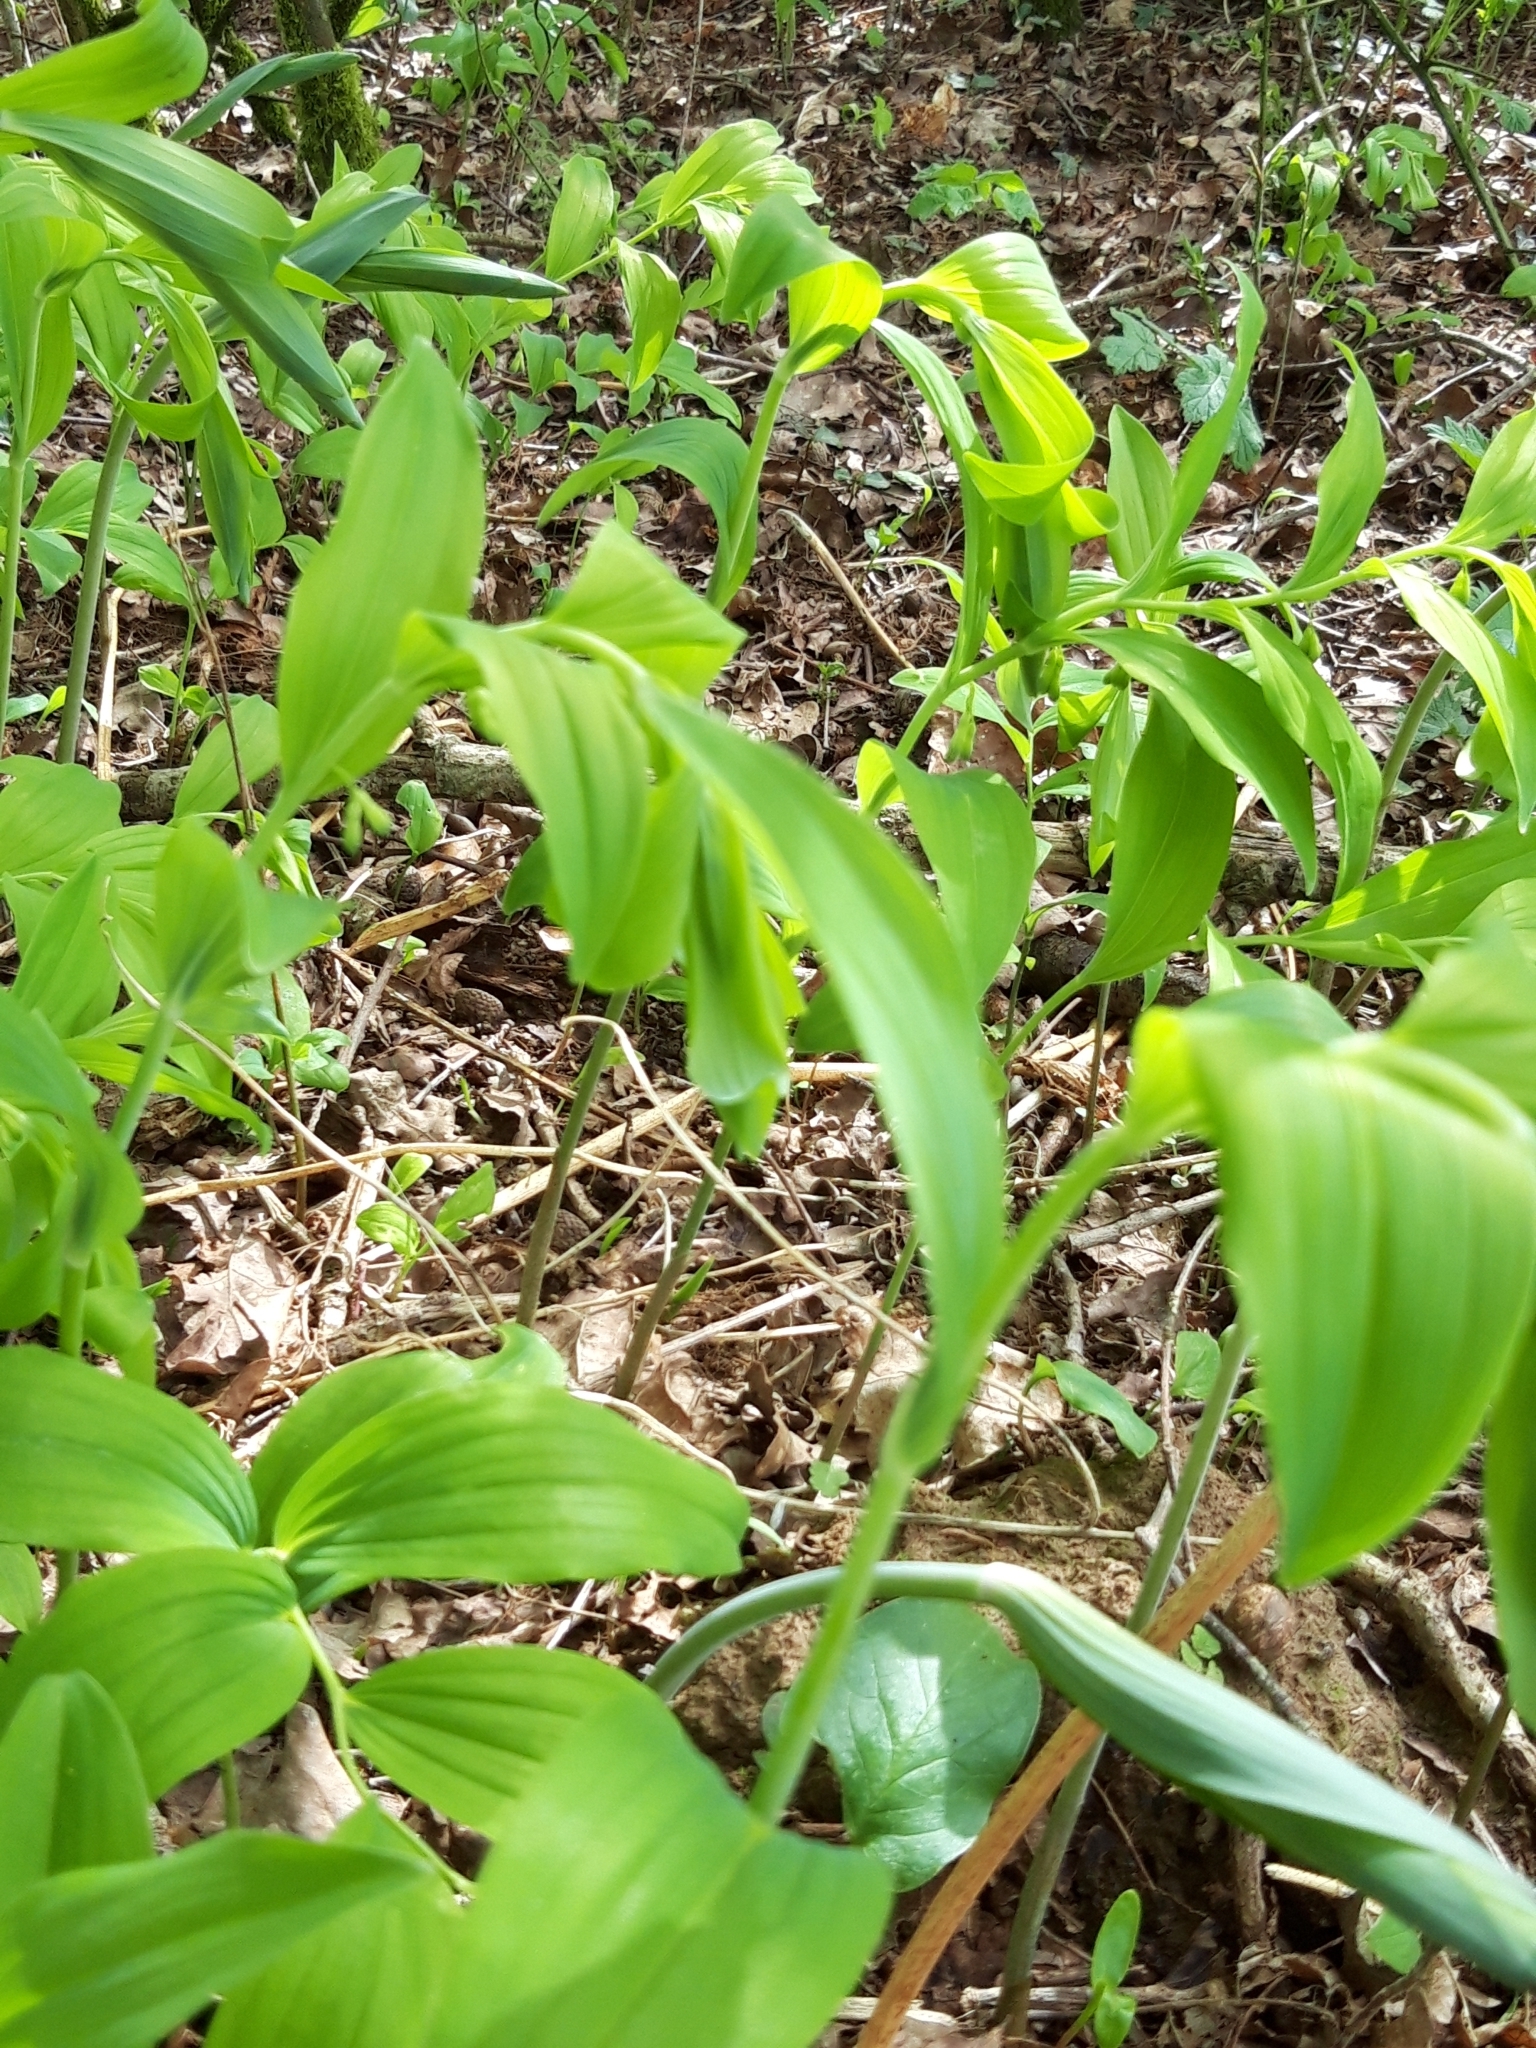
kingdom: Plantae
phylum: Tracheophyta
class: Liliopsida
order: Asparagales
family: Asparagaceae
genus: Polygonatum
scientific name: Polygonatum multiflorum
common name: Solomon's-seal
